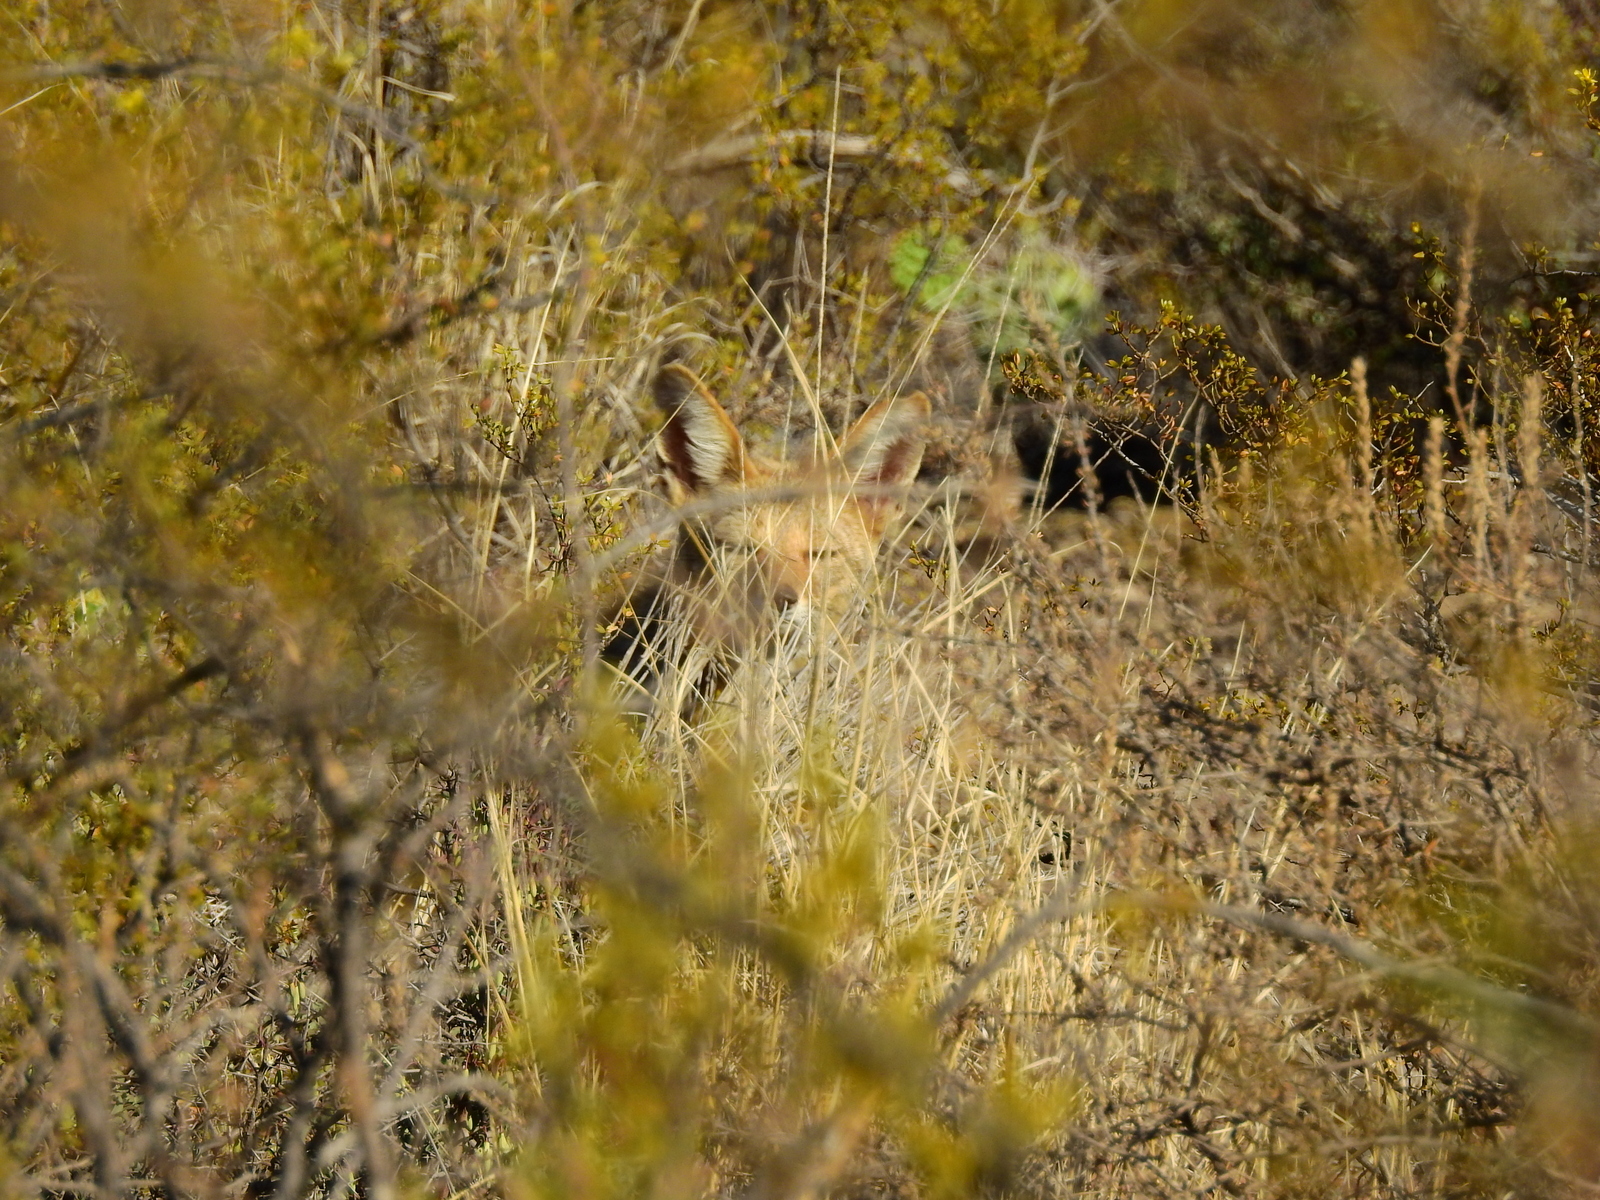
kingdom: Animalia
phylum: Chordata
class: Mammalia
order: Carnivora
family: Canidae
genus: Lycalopex
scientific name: Lycalopex gymnocercus
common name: Pampas fox
